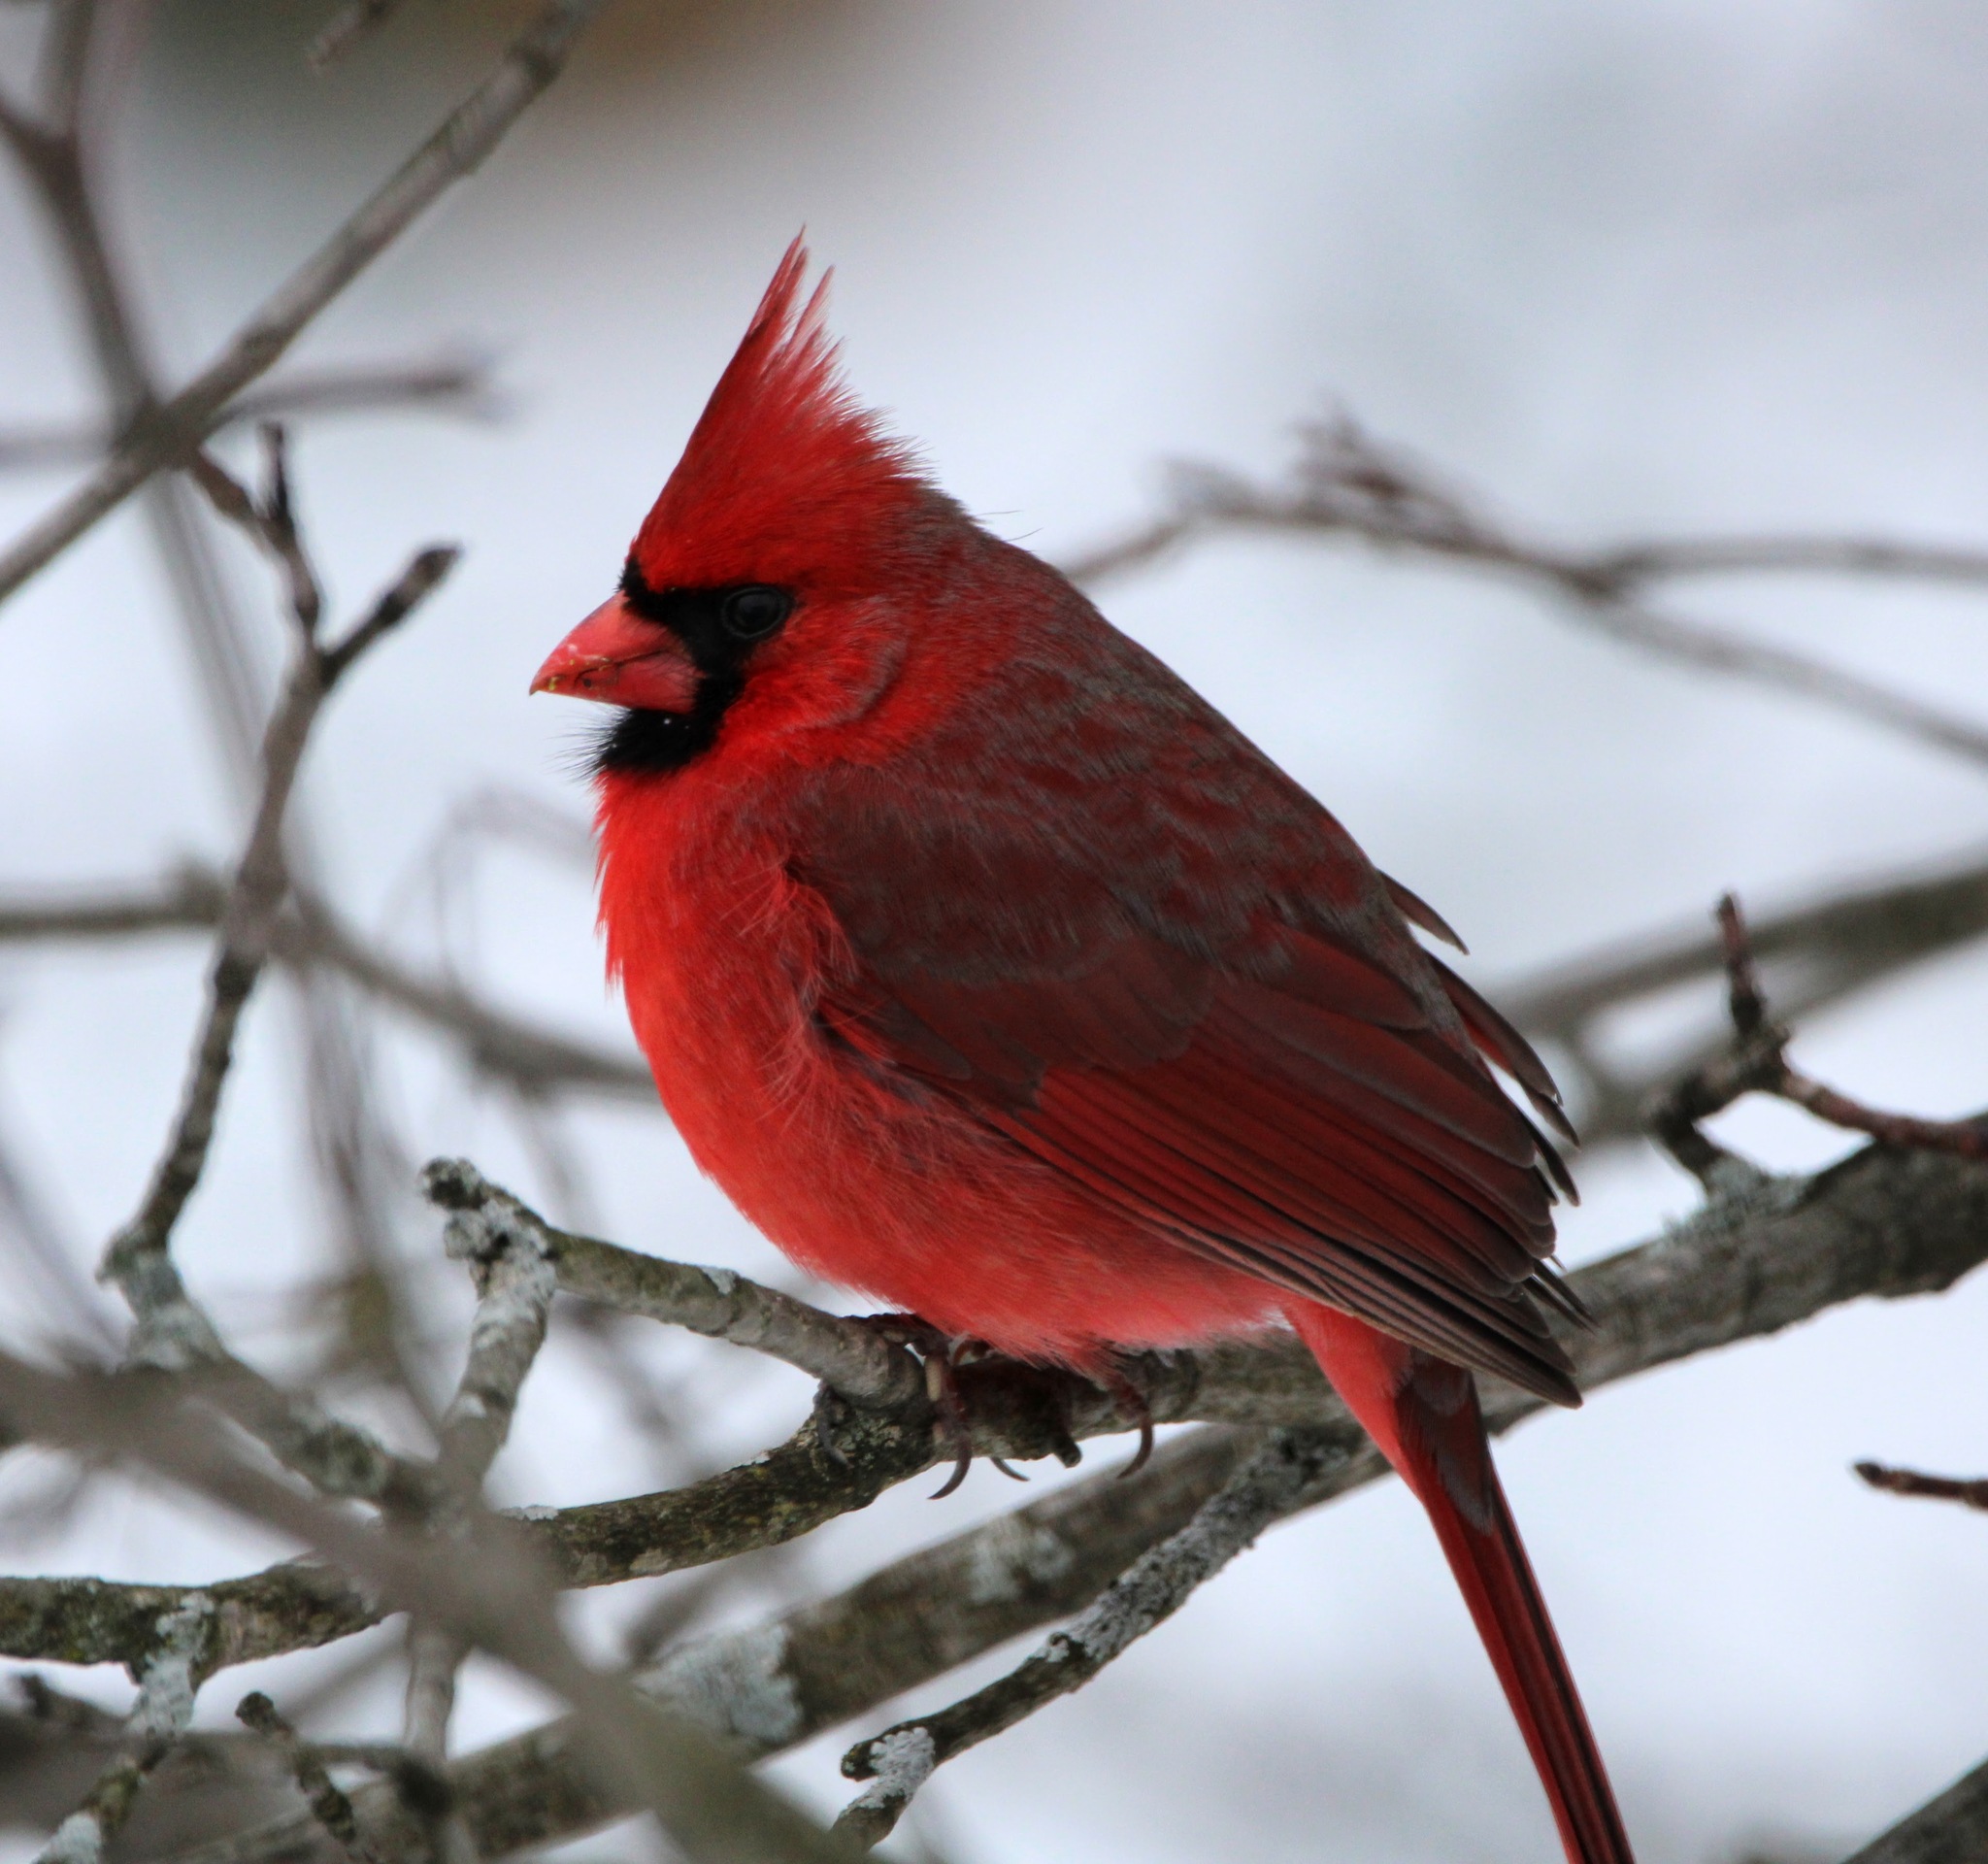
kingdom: Animalia
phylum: Chordata
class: Aves
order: Passeriformes
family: Cardinalidae
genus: Cardinalis
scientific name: Cardinalis cardinalis
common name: Northern cardinal
